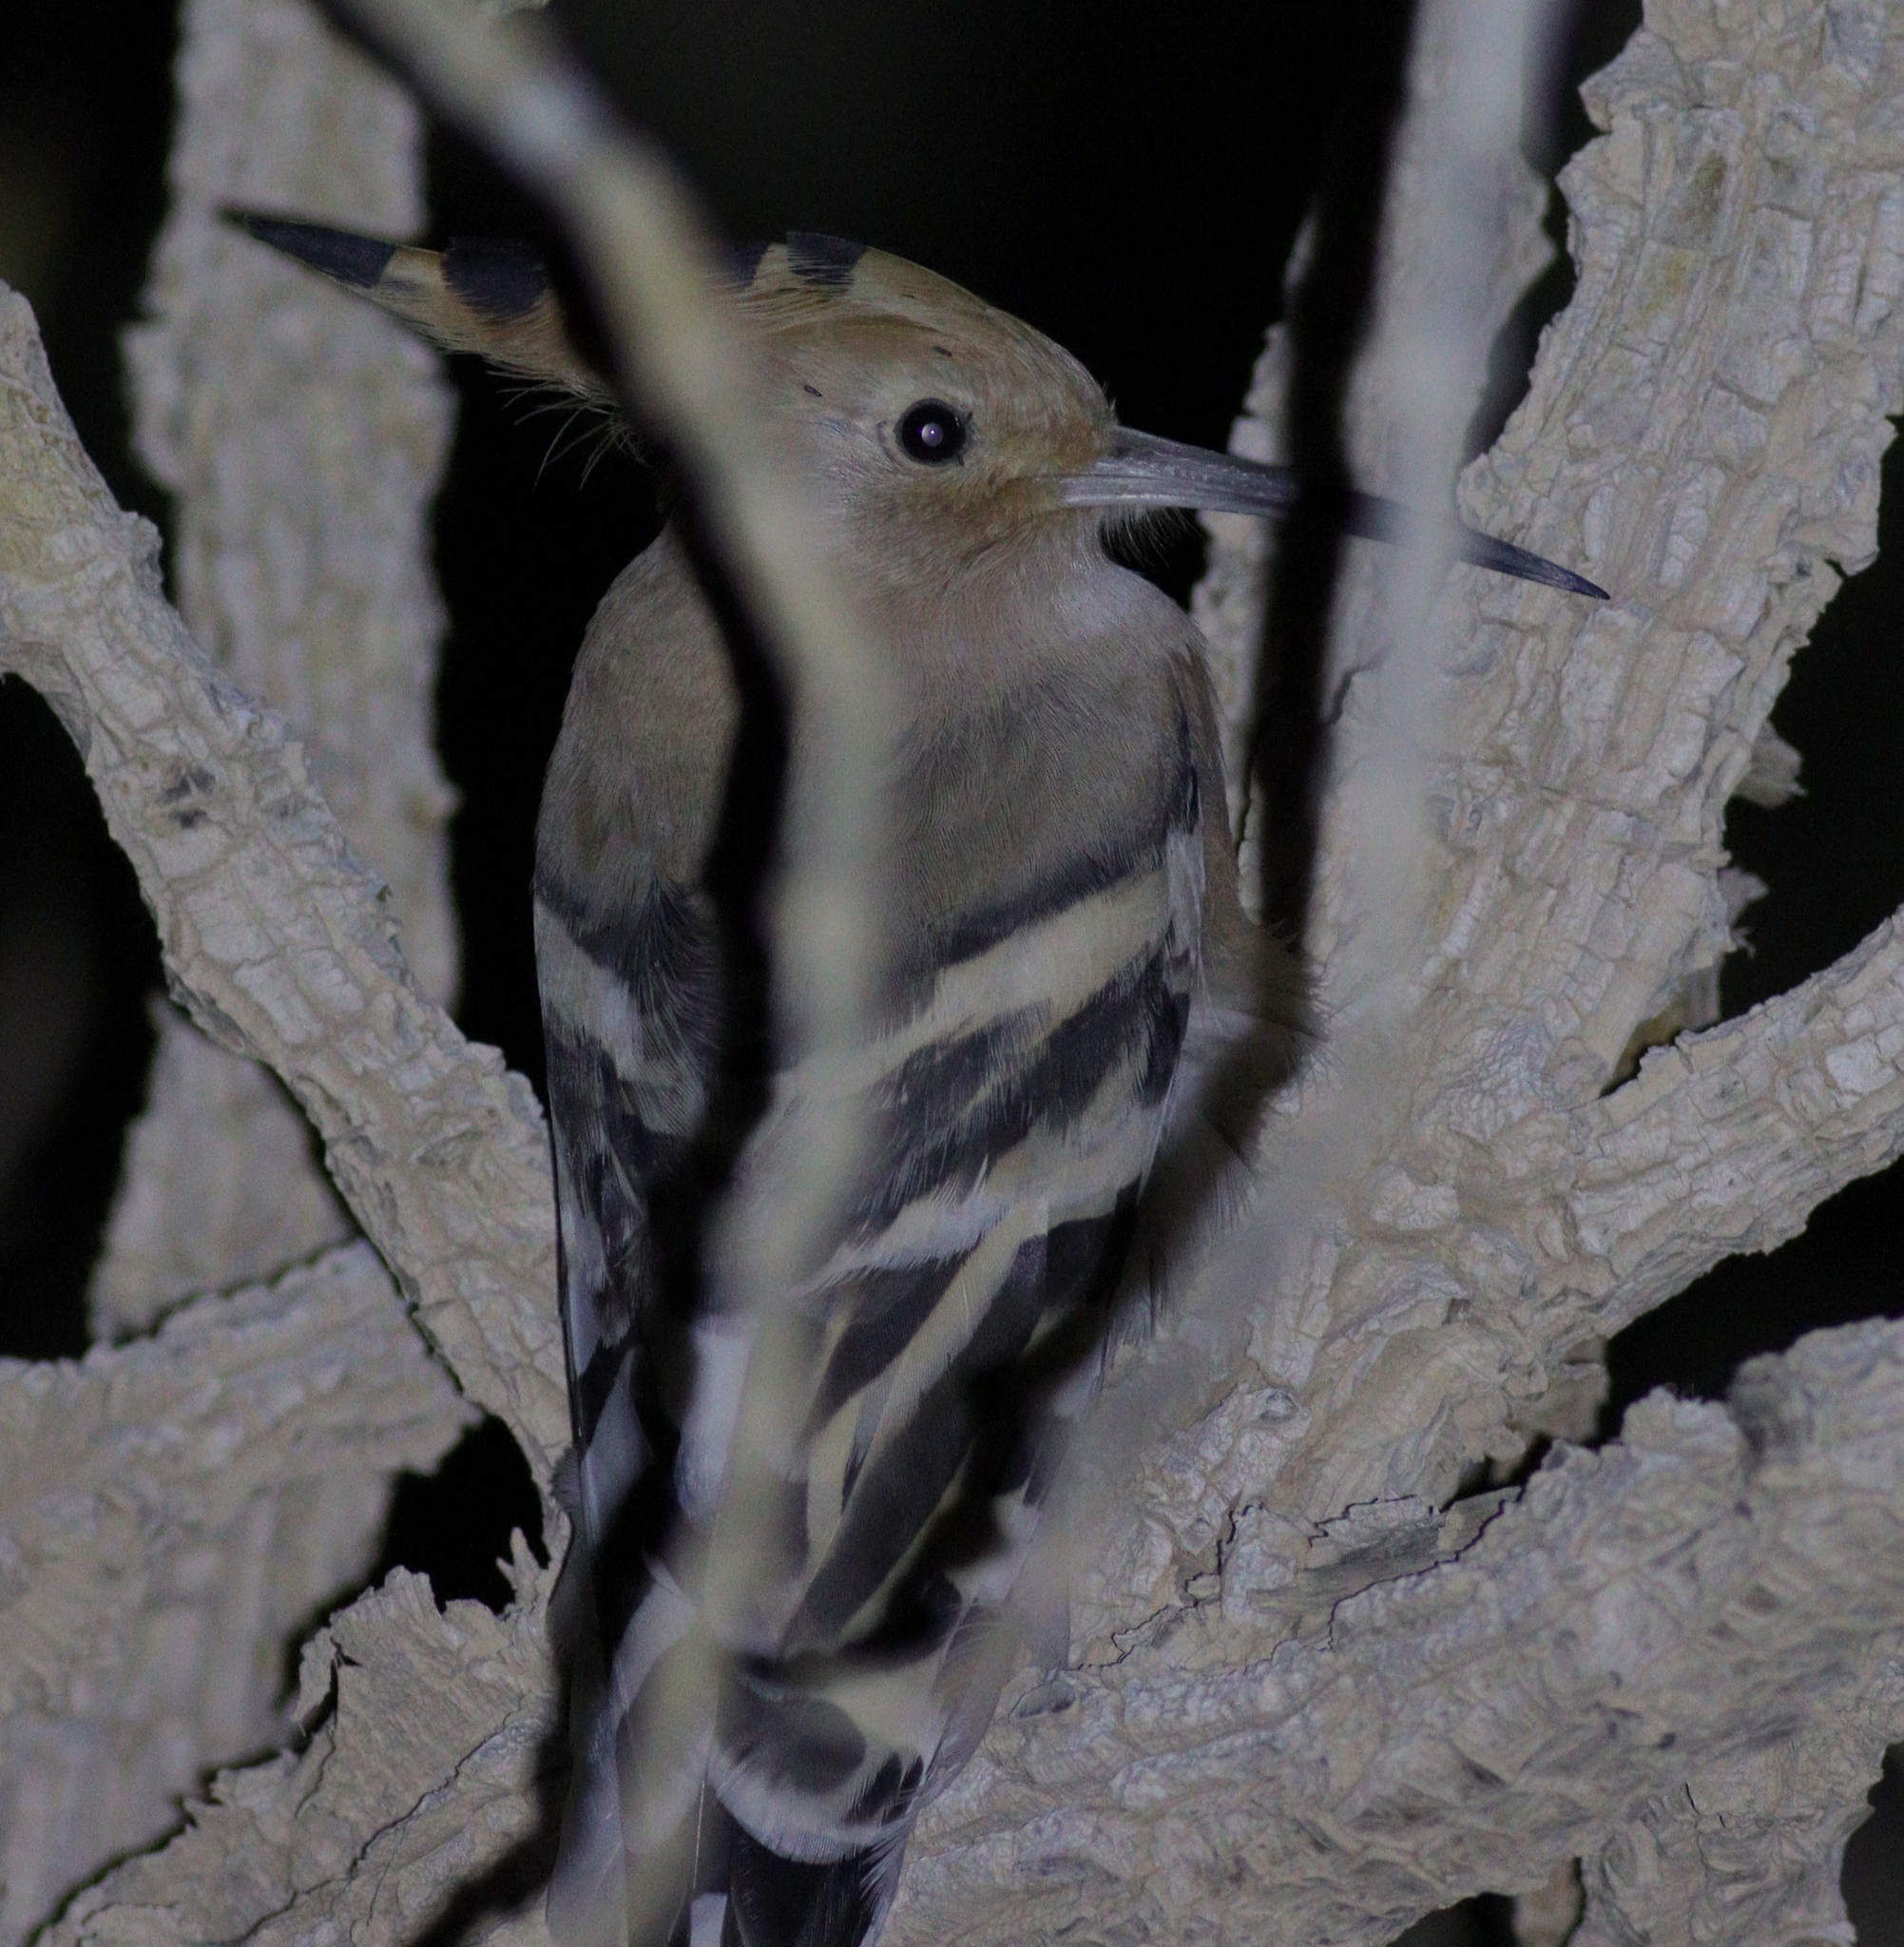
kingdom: Animalia
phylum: Chordata
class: Aves
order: Bucerotiformes
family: Upupidae
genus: Upupa
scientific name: Upupa epops
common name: Eurasian hoopoe
